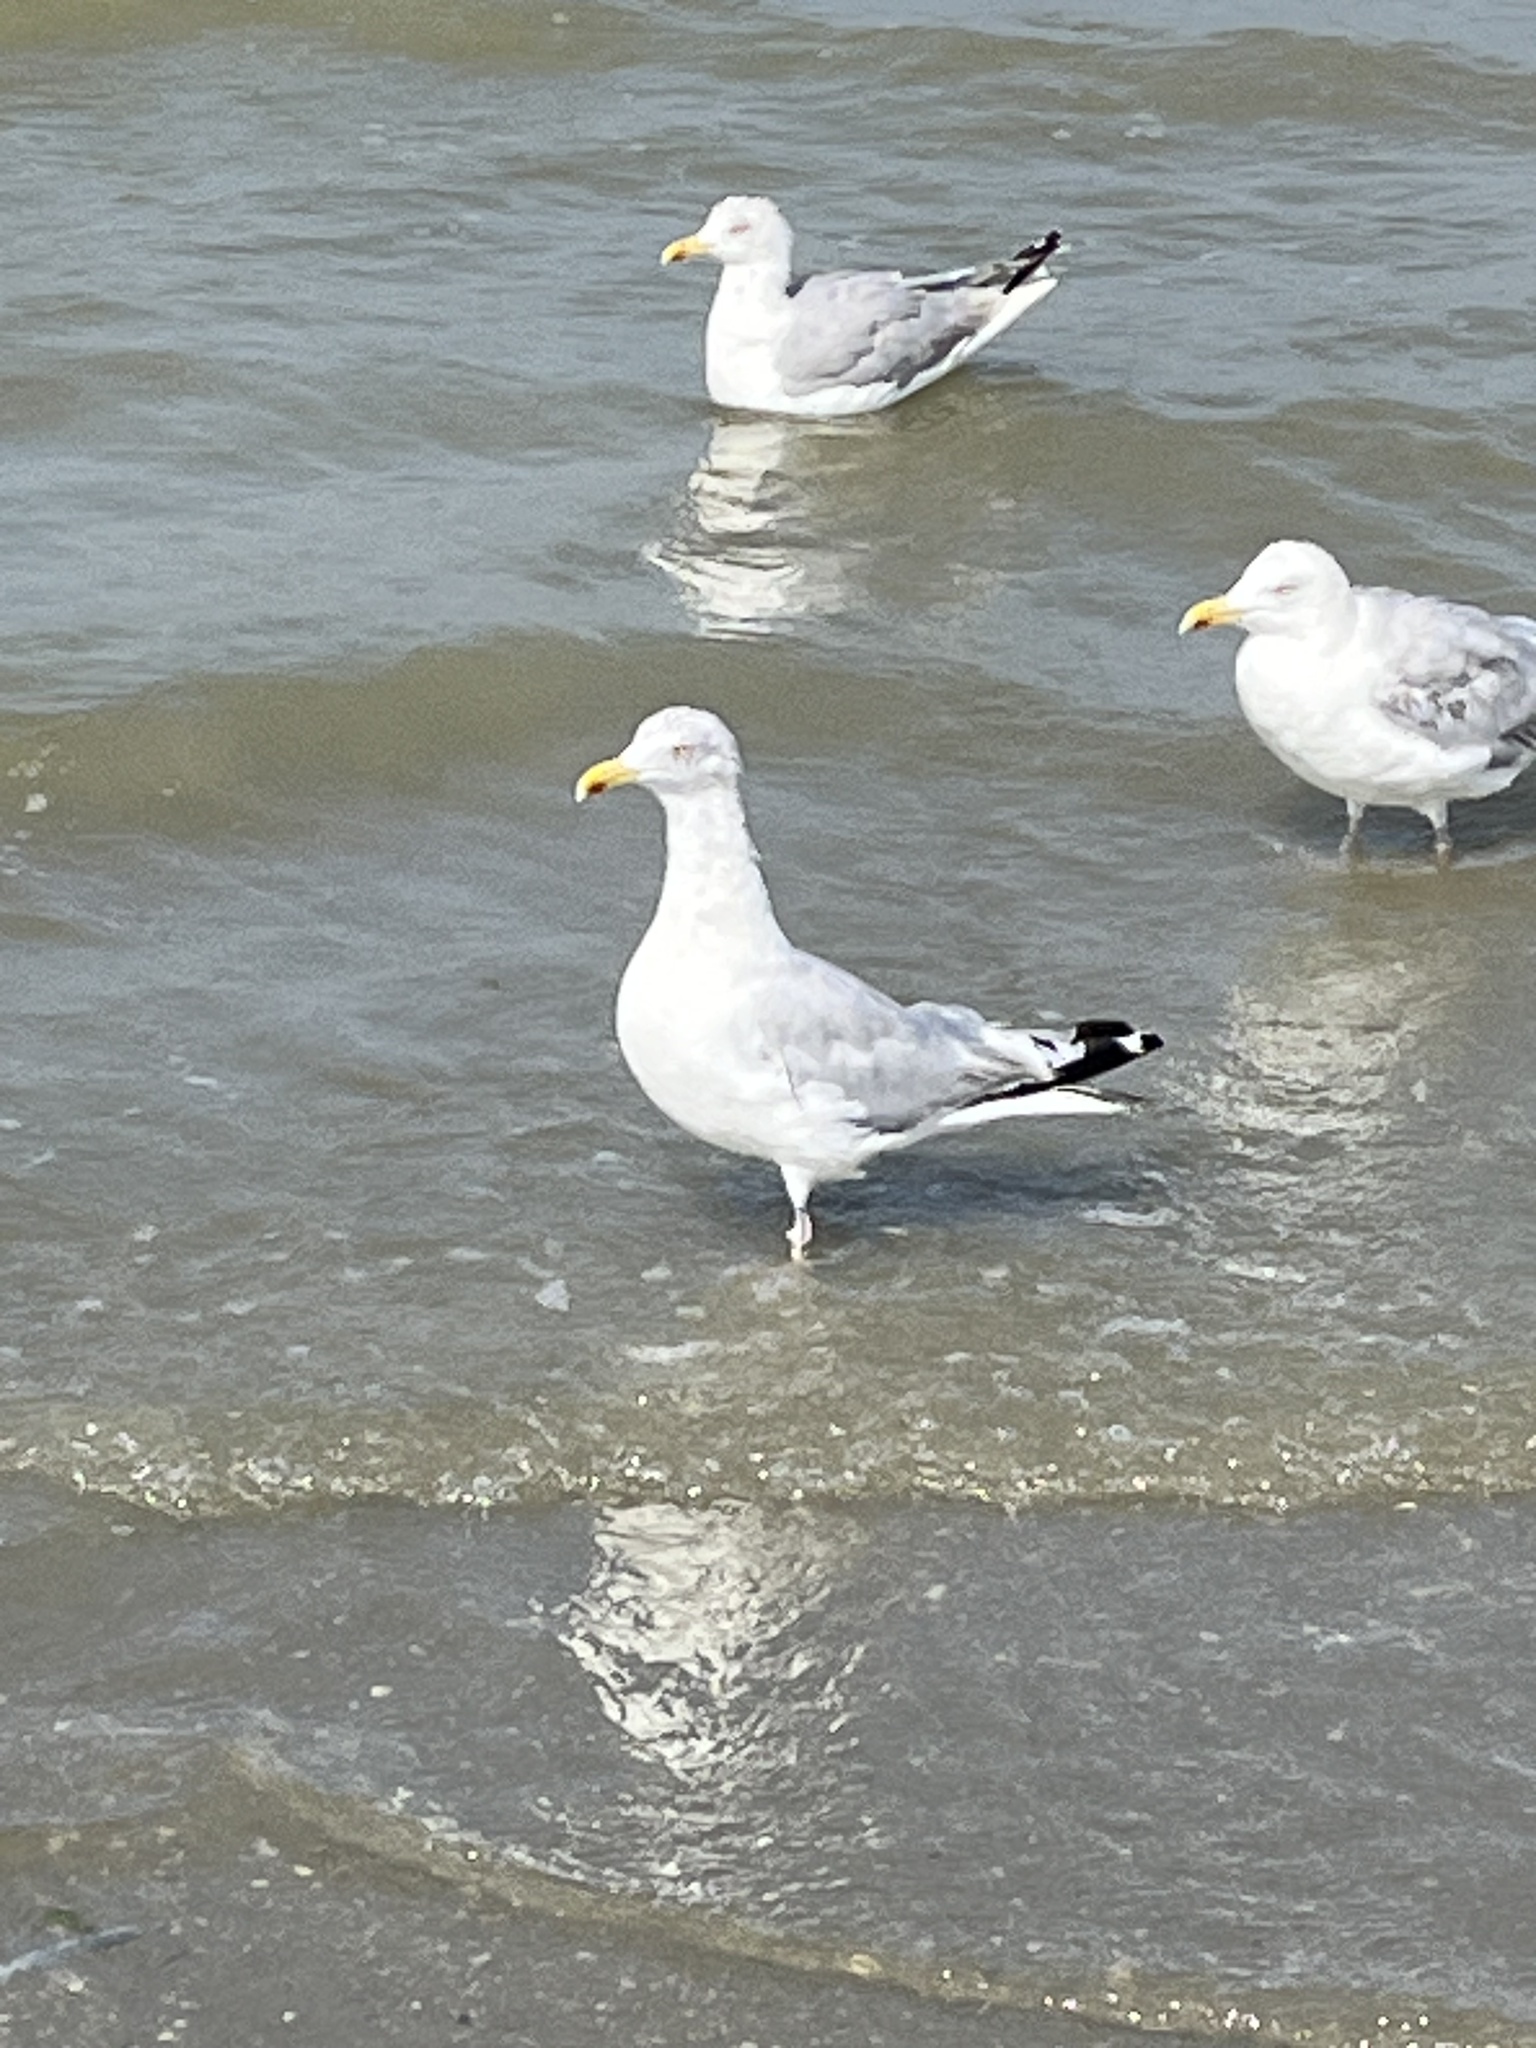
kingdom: Animalia
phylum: Chordata
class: Aves
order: Charadriiformes
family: Laridae
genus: Larus
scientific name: Larus argentatus
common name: Herring gull
